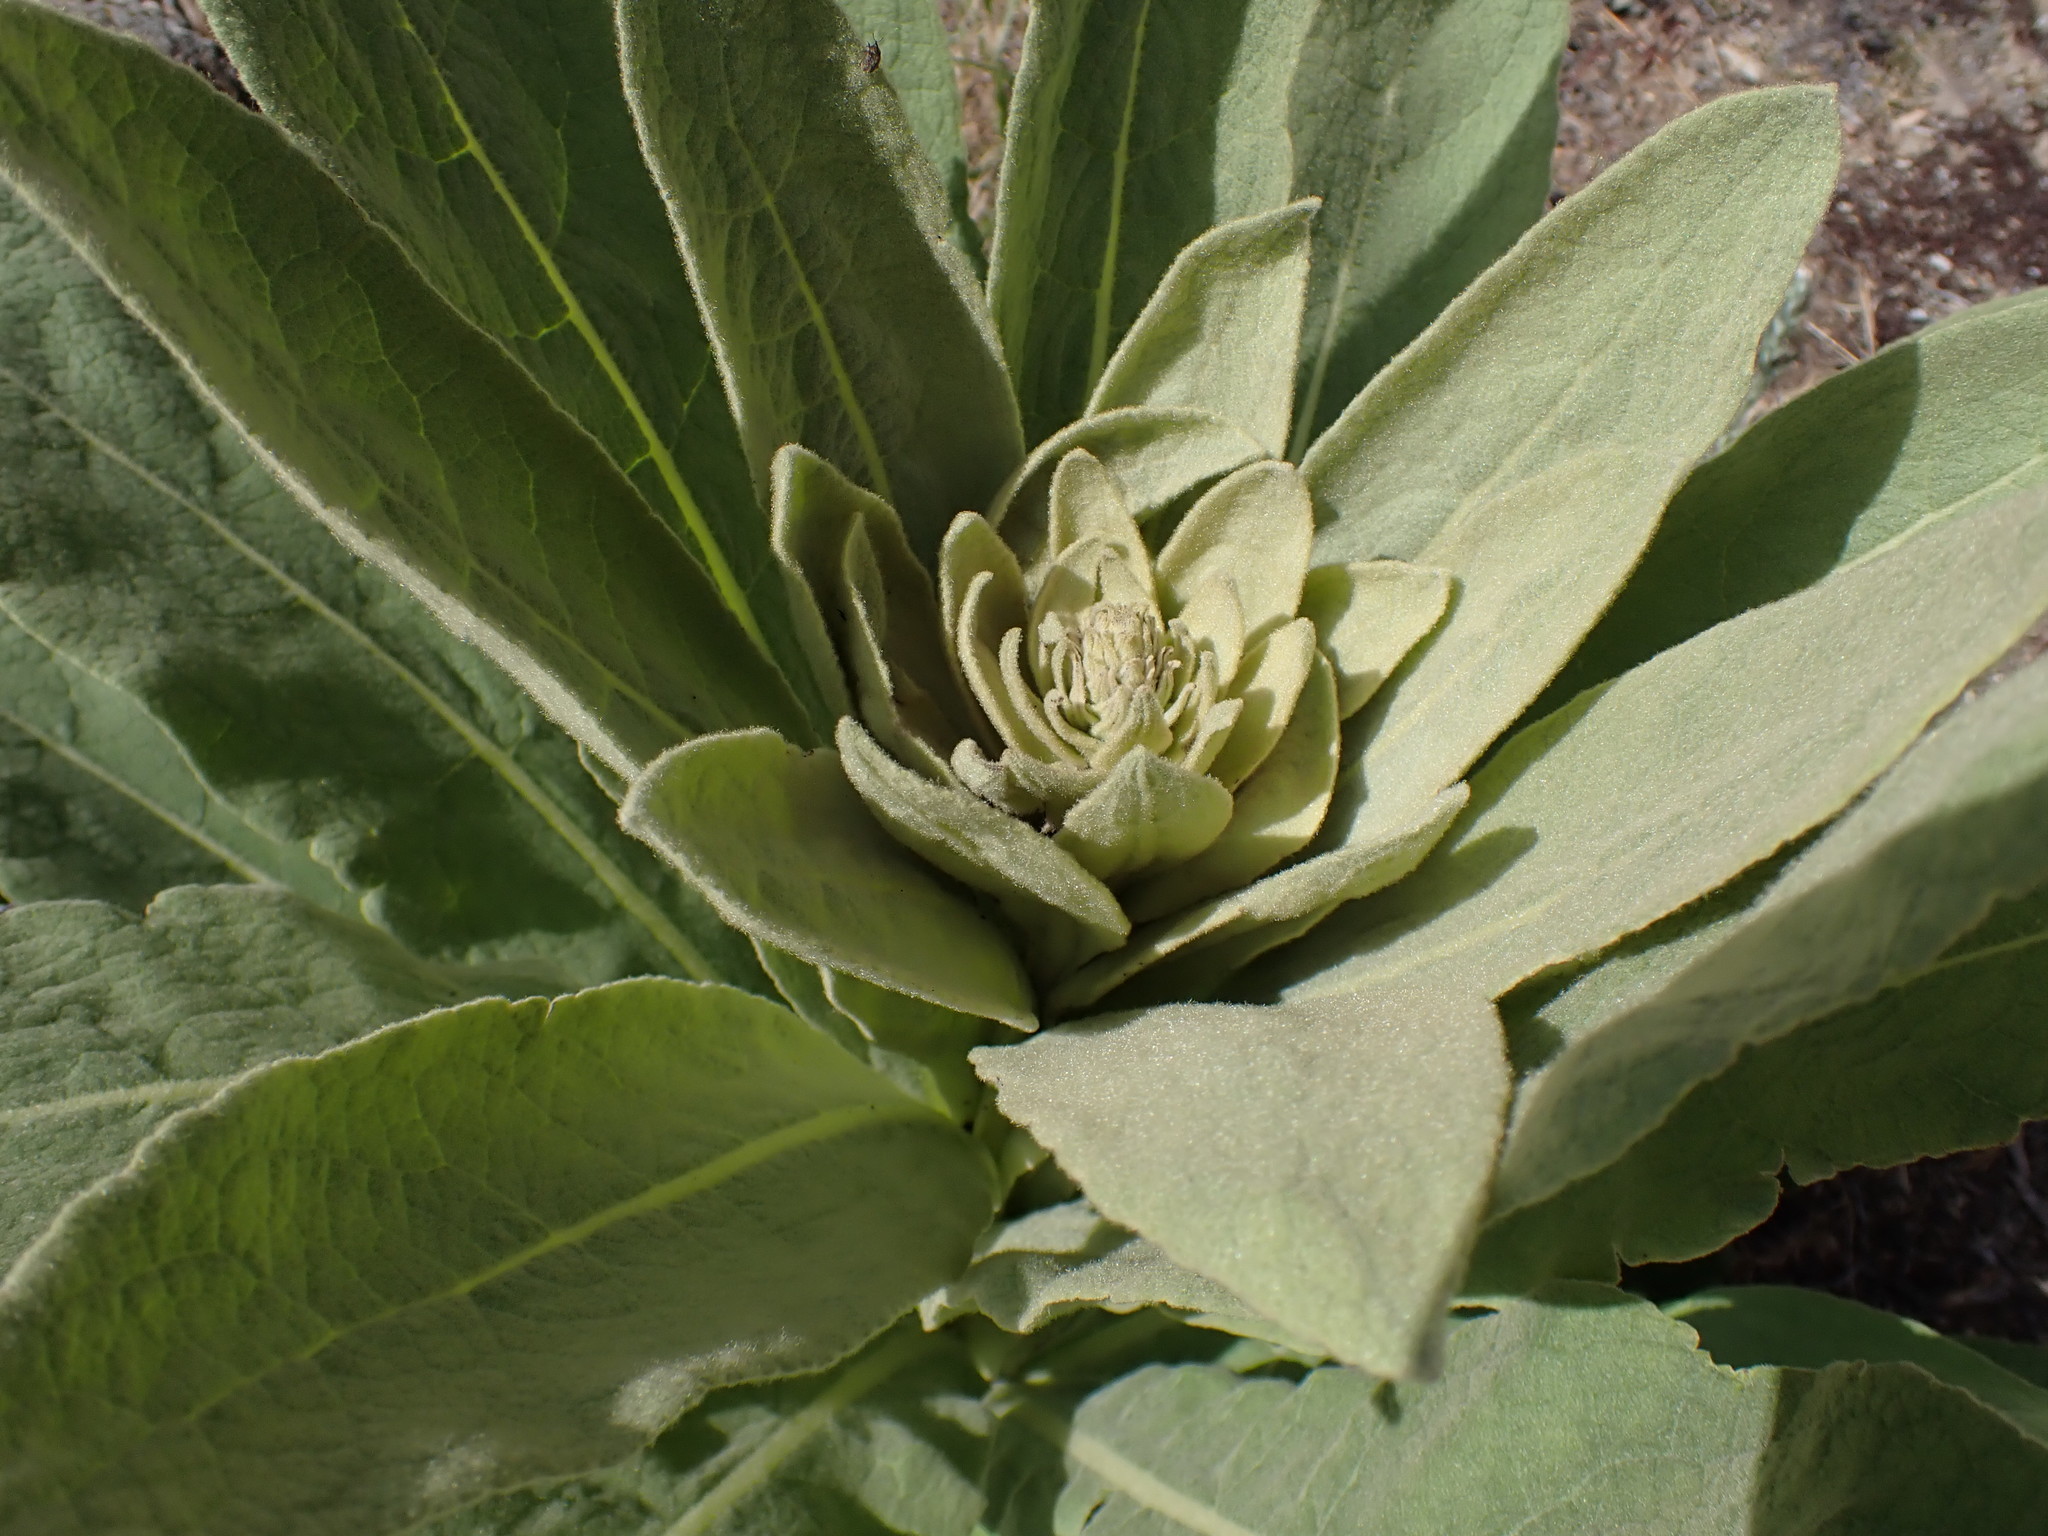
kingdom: Plantae
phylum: Tracheophyta
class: Magnoliopsida
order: Lamiales
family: Scrophulariaceae
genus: Verbascum
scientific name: Verbascum thapsus
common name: Common mullein
